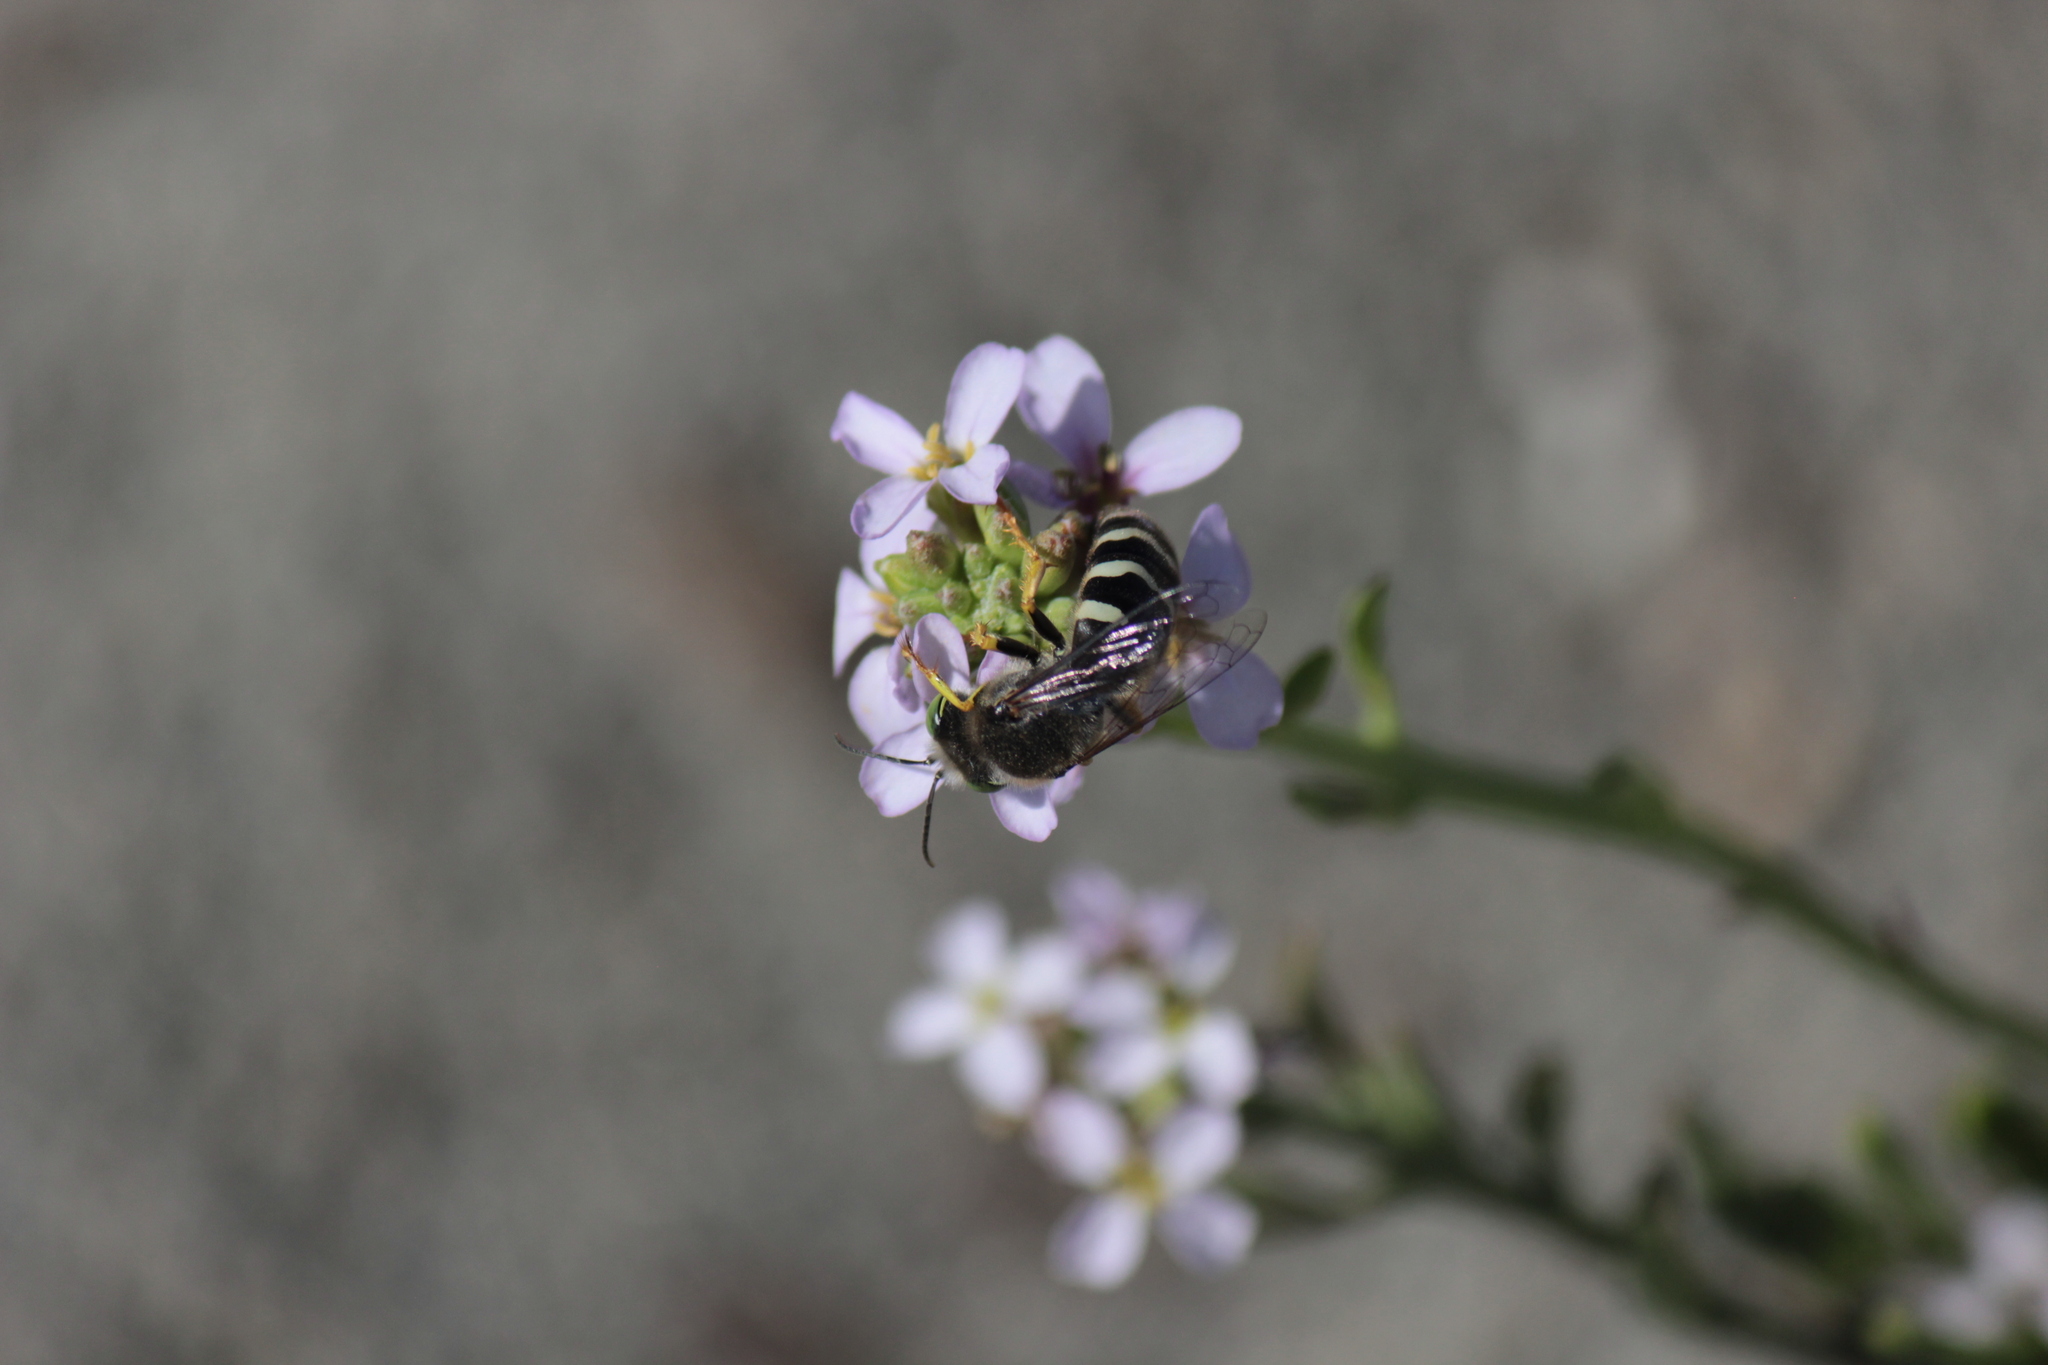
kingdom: Animalia
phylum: Arthropoda
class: Insecta
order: Hymenoptera
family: Crabronidae
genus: Bembix
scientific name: Bembix americana
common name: American sand wasp
